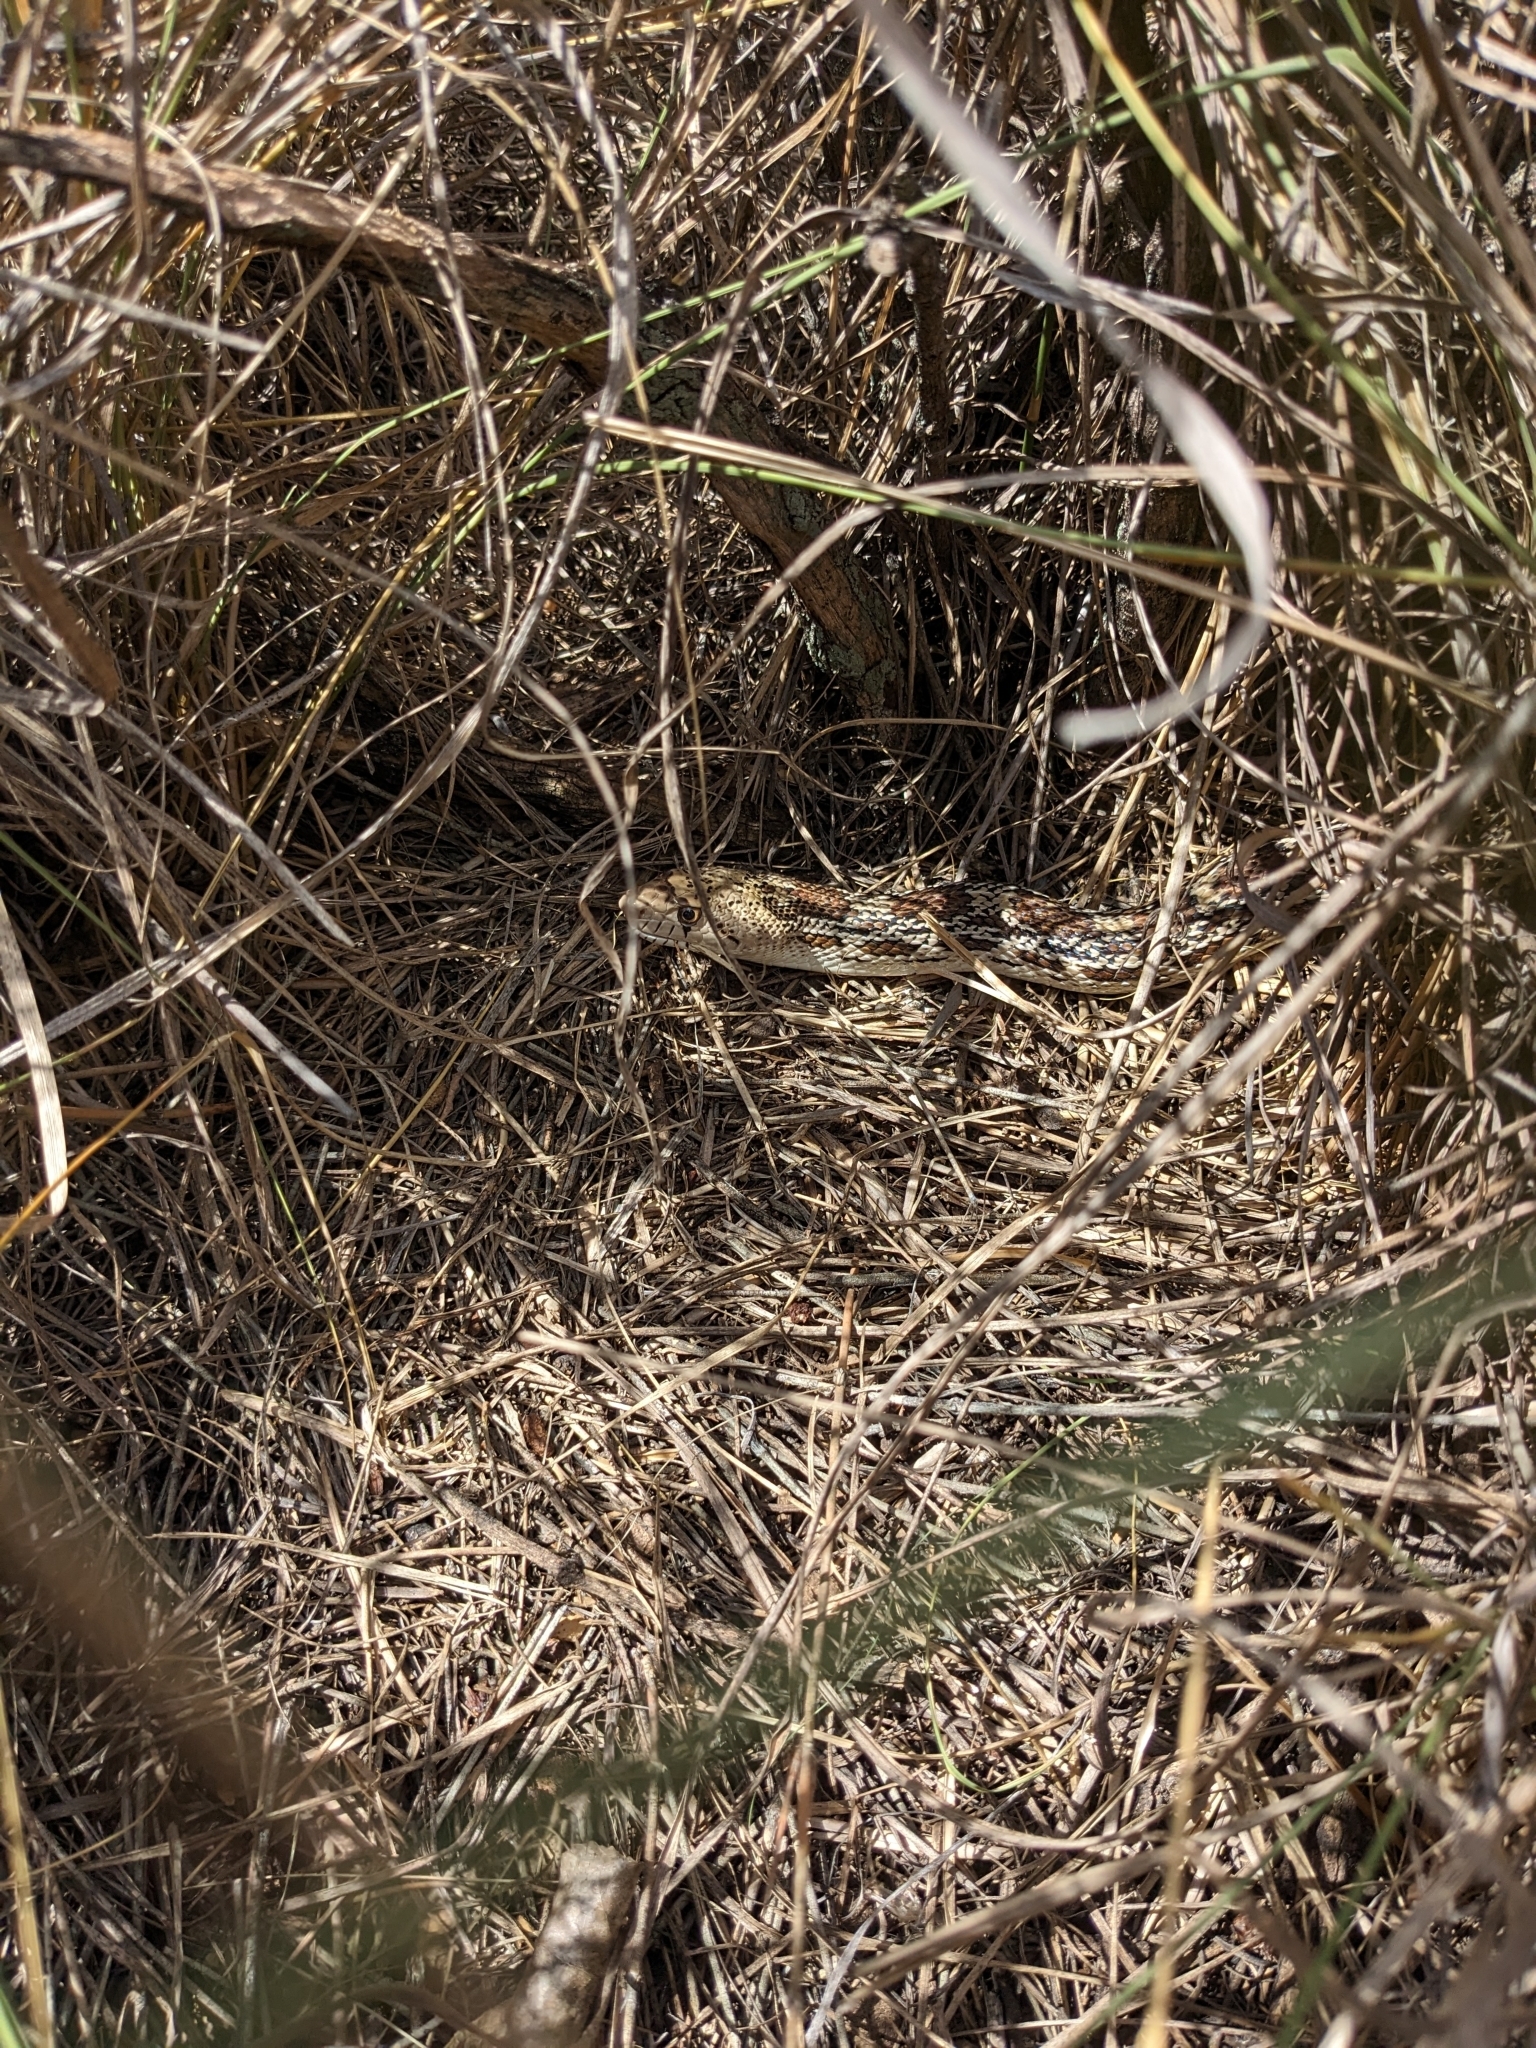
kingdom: Animalia
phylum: Chordata
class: Squamata
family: Colubridae
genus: Pituophis
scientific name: Pituophis catenifer
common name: Gopher snake
